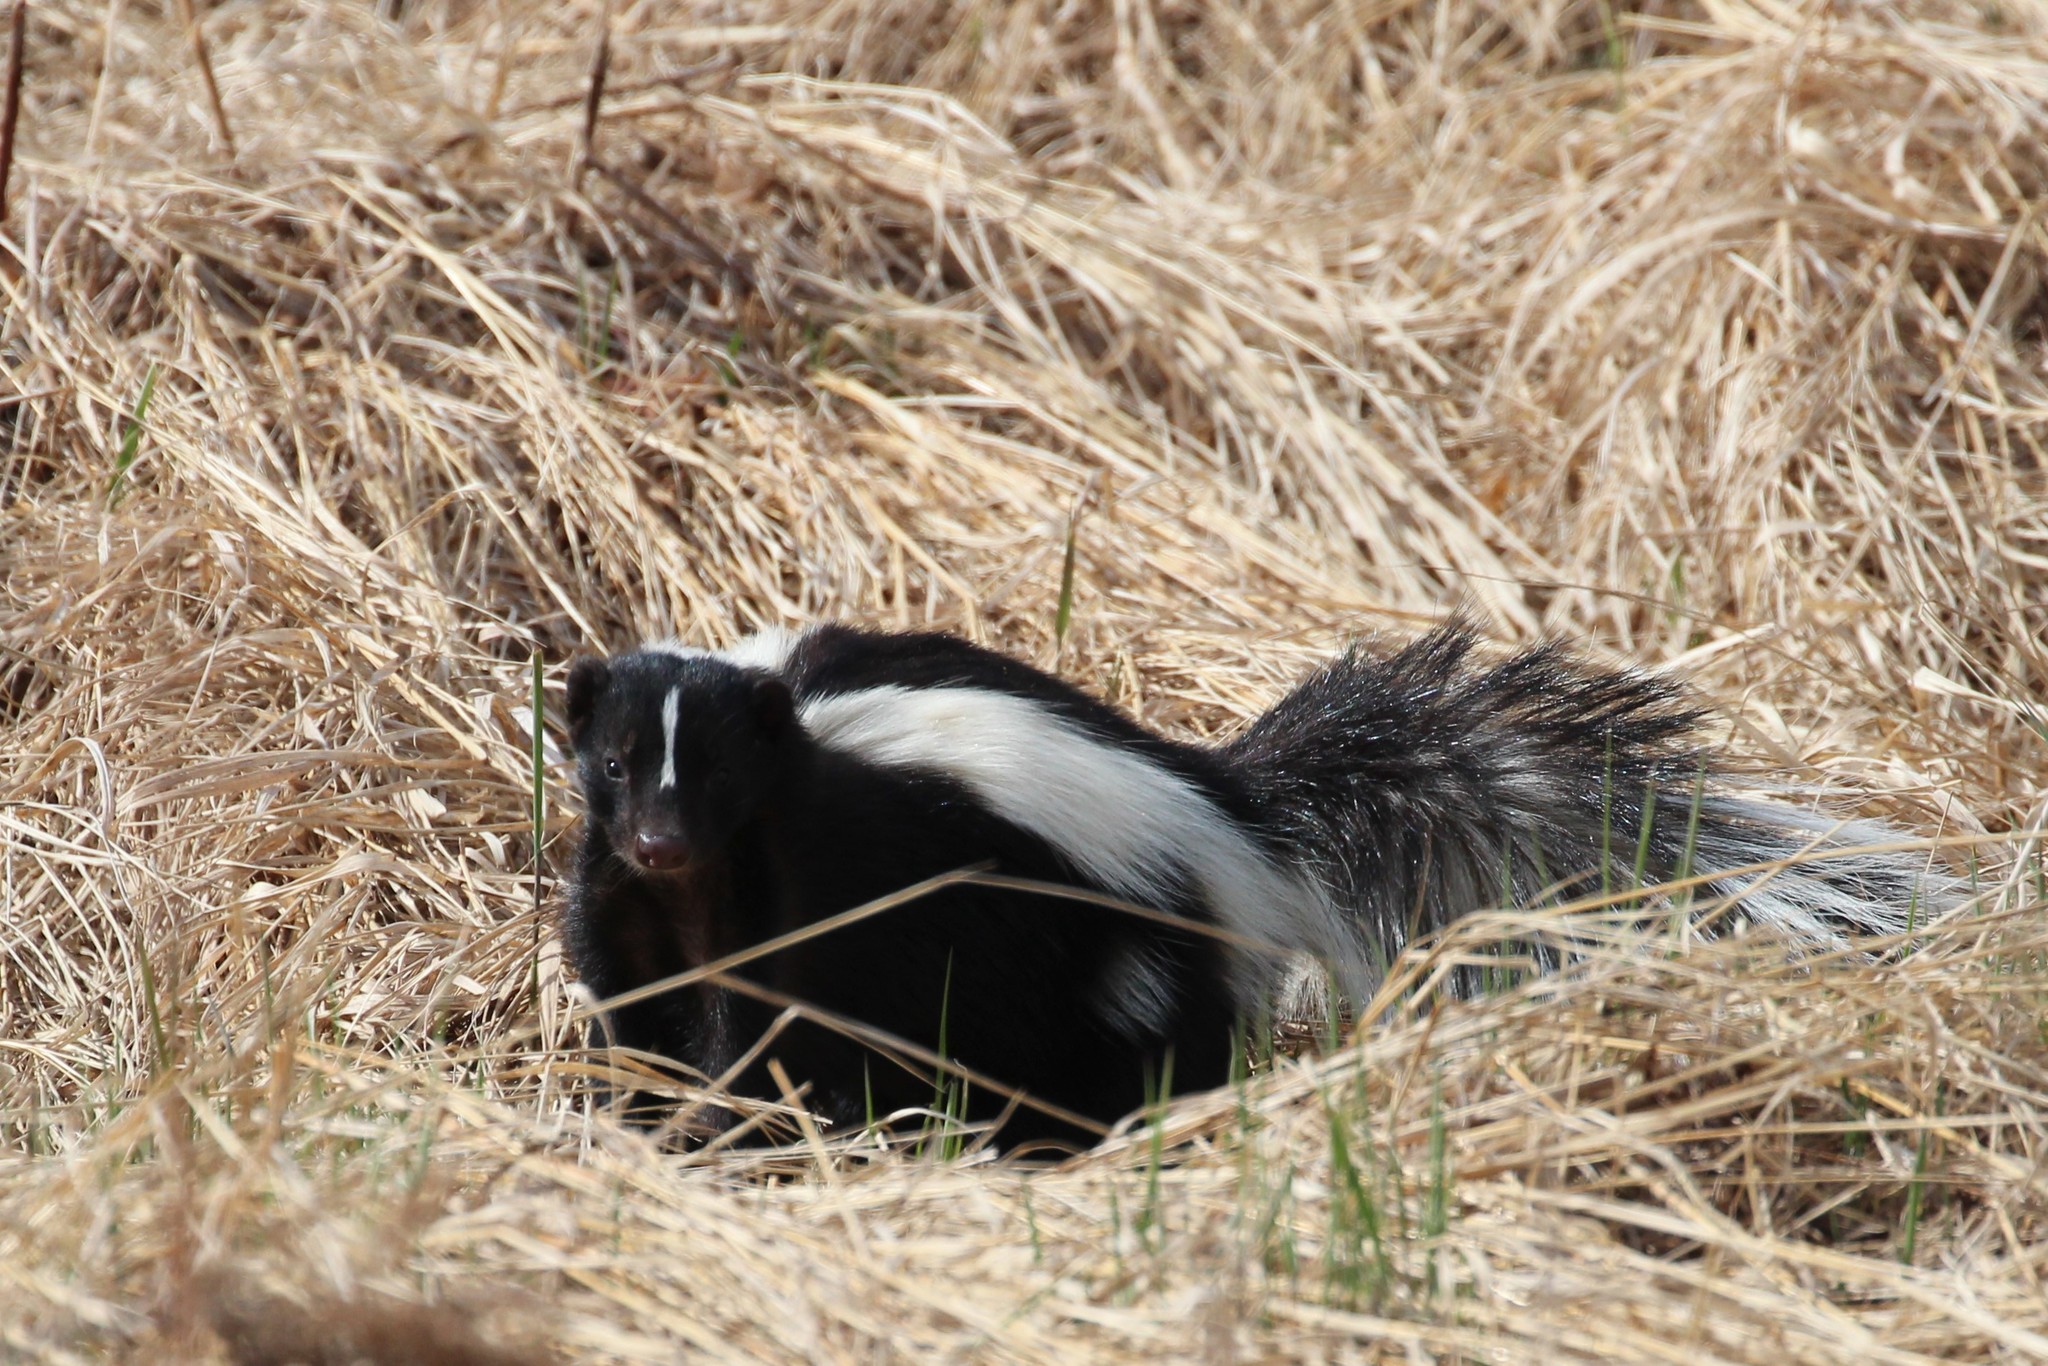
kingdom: Animalia
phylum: Chordata
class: Mammalia
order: Carnivora
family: Mephitidae
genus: Mephitis
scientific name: Mephitis mephitis
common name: Striped skunk
